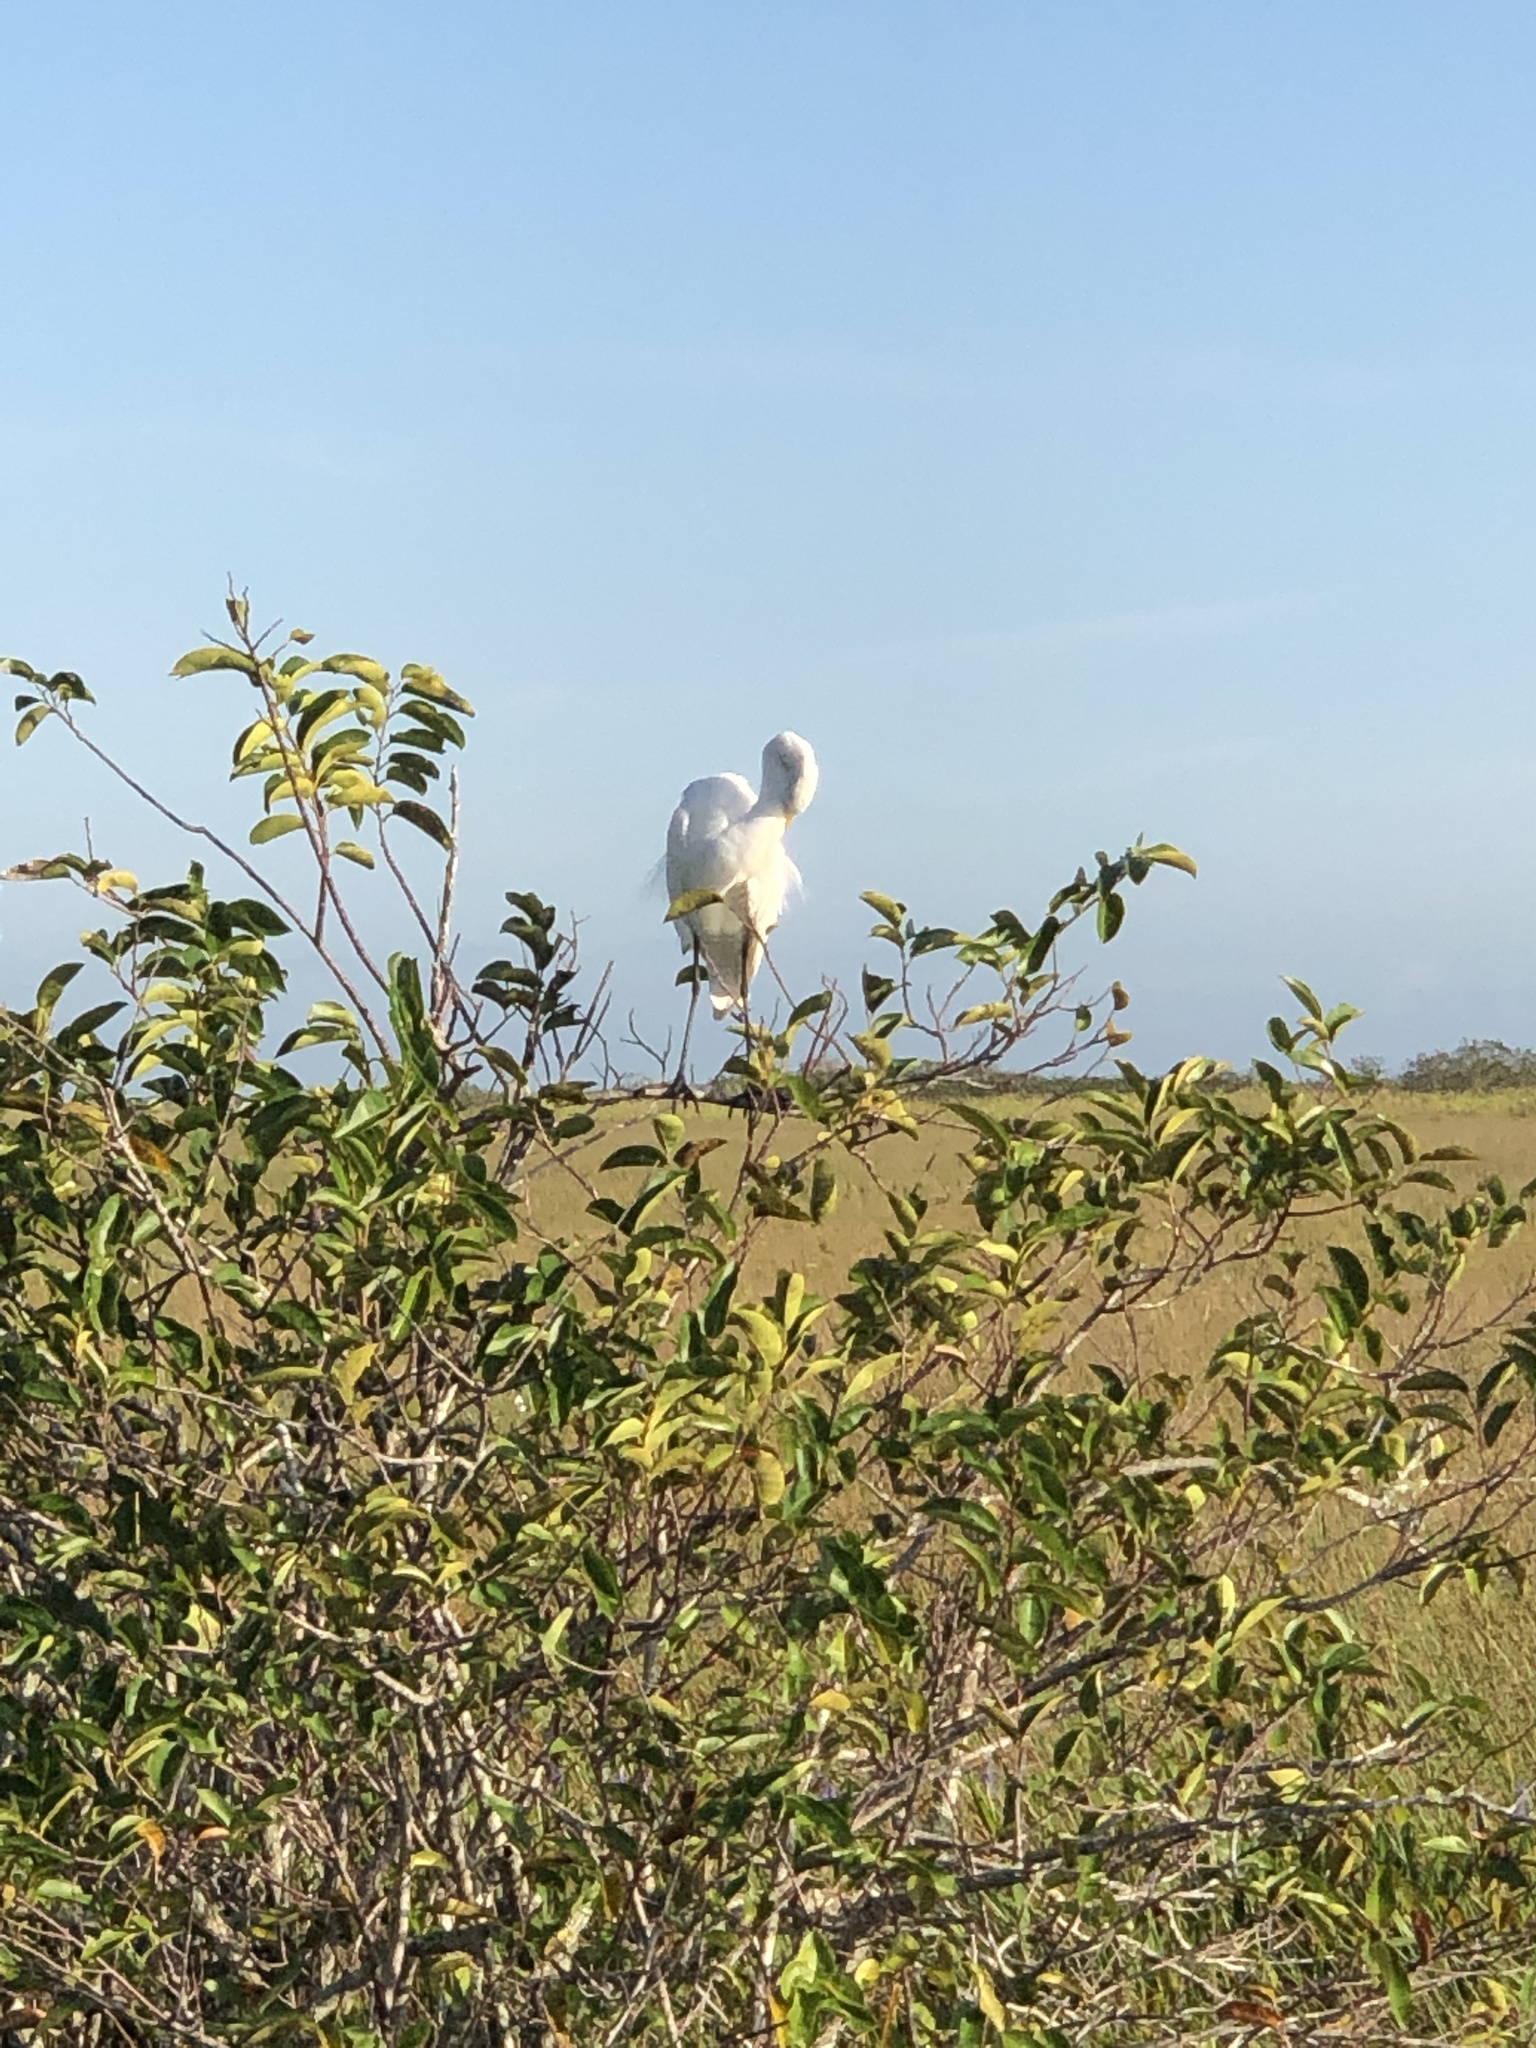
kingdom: Animalia
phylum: Chordata
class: Aves
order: Pelecaniformes
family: Ardeidae
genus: Ardea
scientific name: Ardea alba
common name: Great egret
